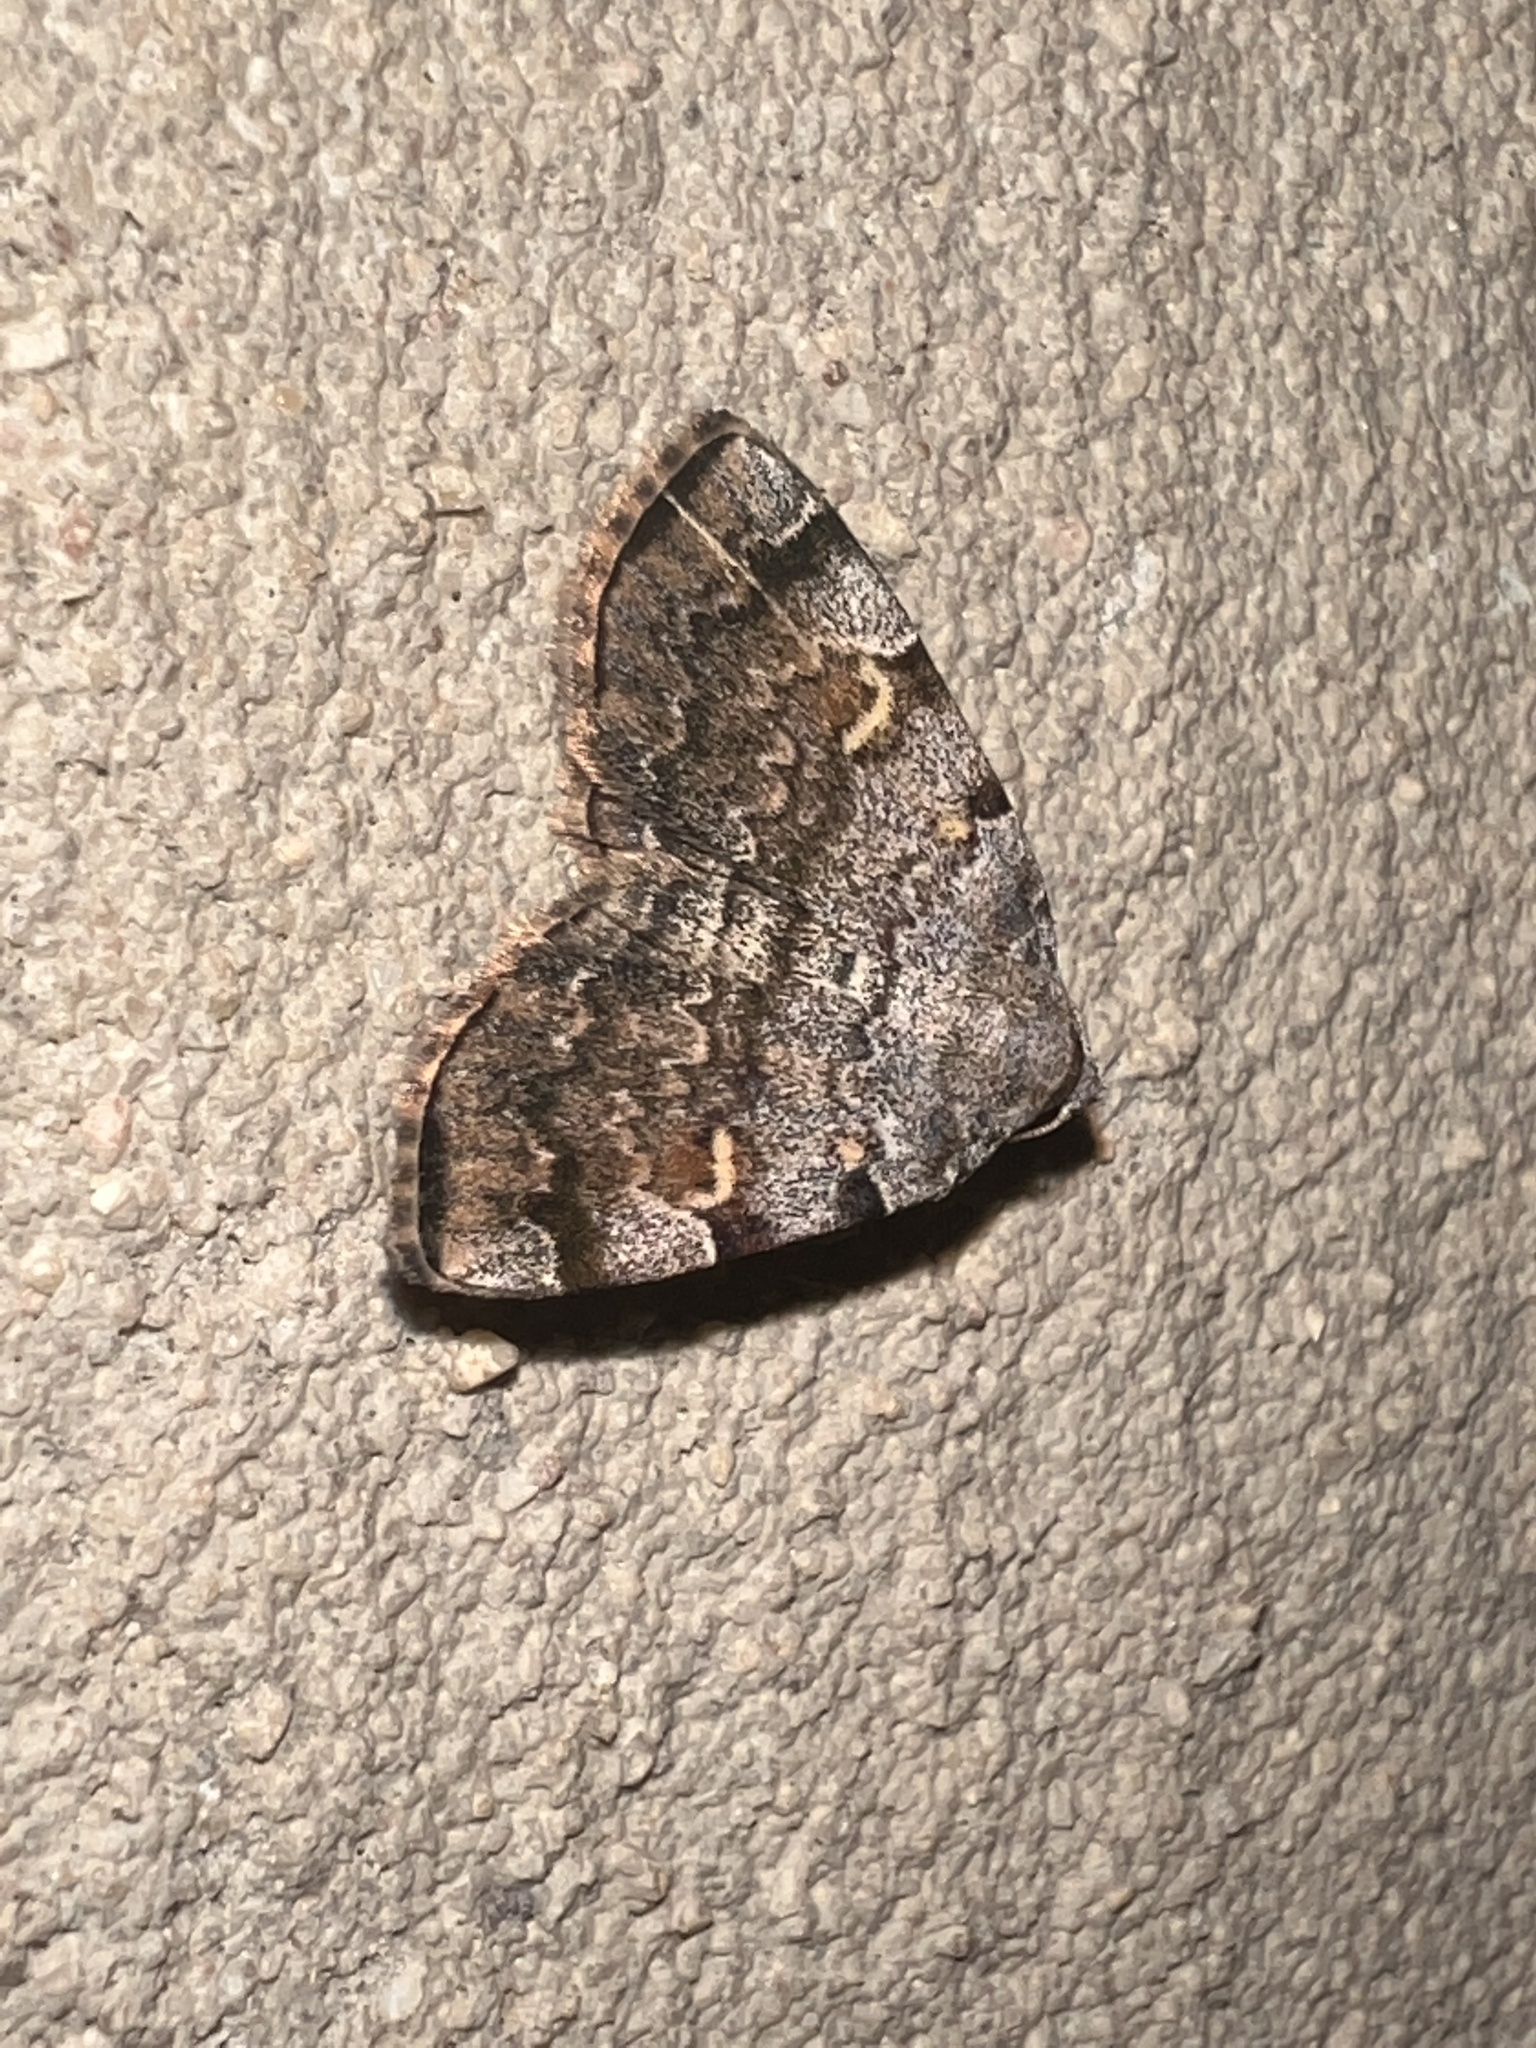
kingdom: Animalia
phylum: Arthropoda
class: Insecta
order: Lepidoptera
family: Erebidae
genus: Idia
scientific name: Idia americalis
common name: American idia moth
